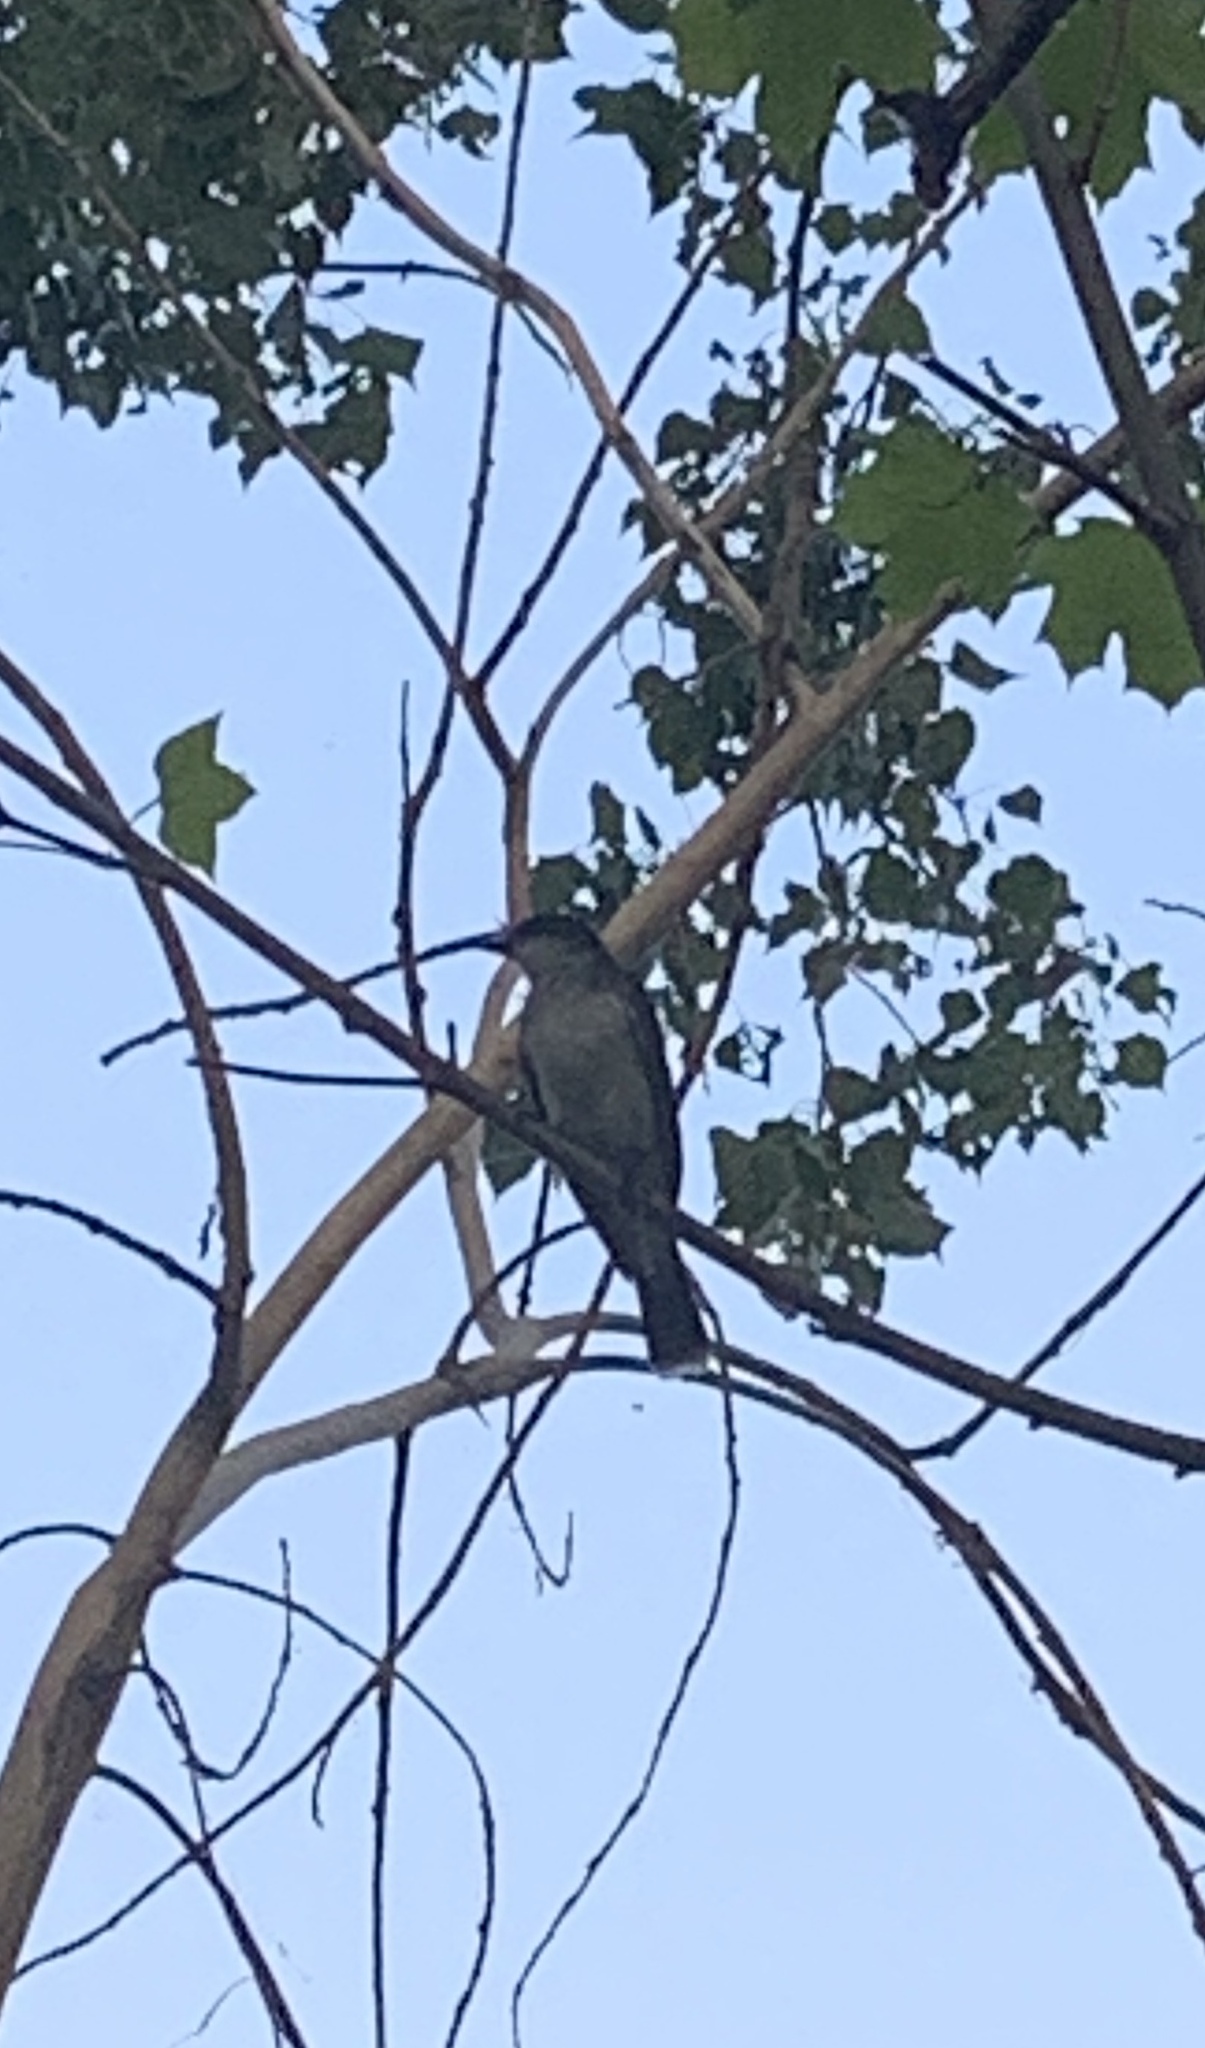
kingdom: Animalia
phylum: Chordata
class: Aves
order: Passeriformes
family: Tyrannidae
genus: Tyrannus
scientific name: Tyrannus tyrannus
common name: Eastern kingbird
